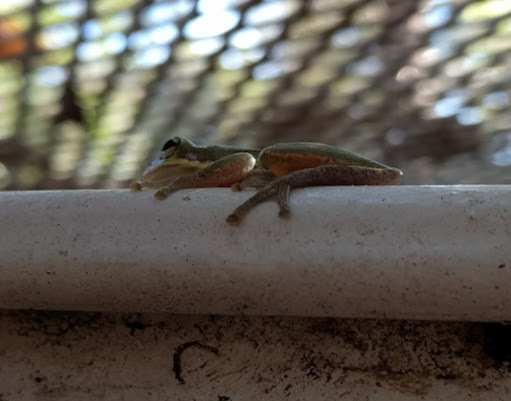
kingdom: Animalia
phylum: Chordata
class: Amphibia
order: Anura
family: Hylidae
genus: Dryophytes
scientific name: Dryophytes squirellus
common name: Squirrel treefrog
